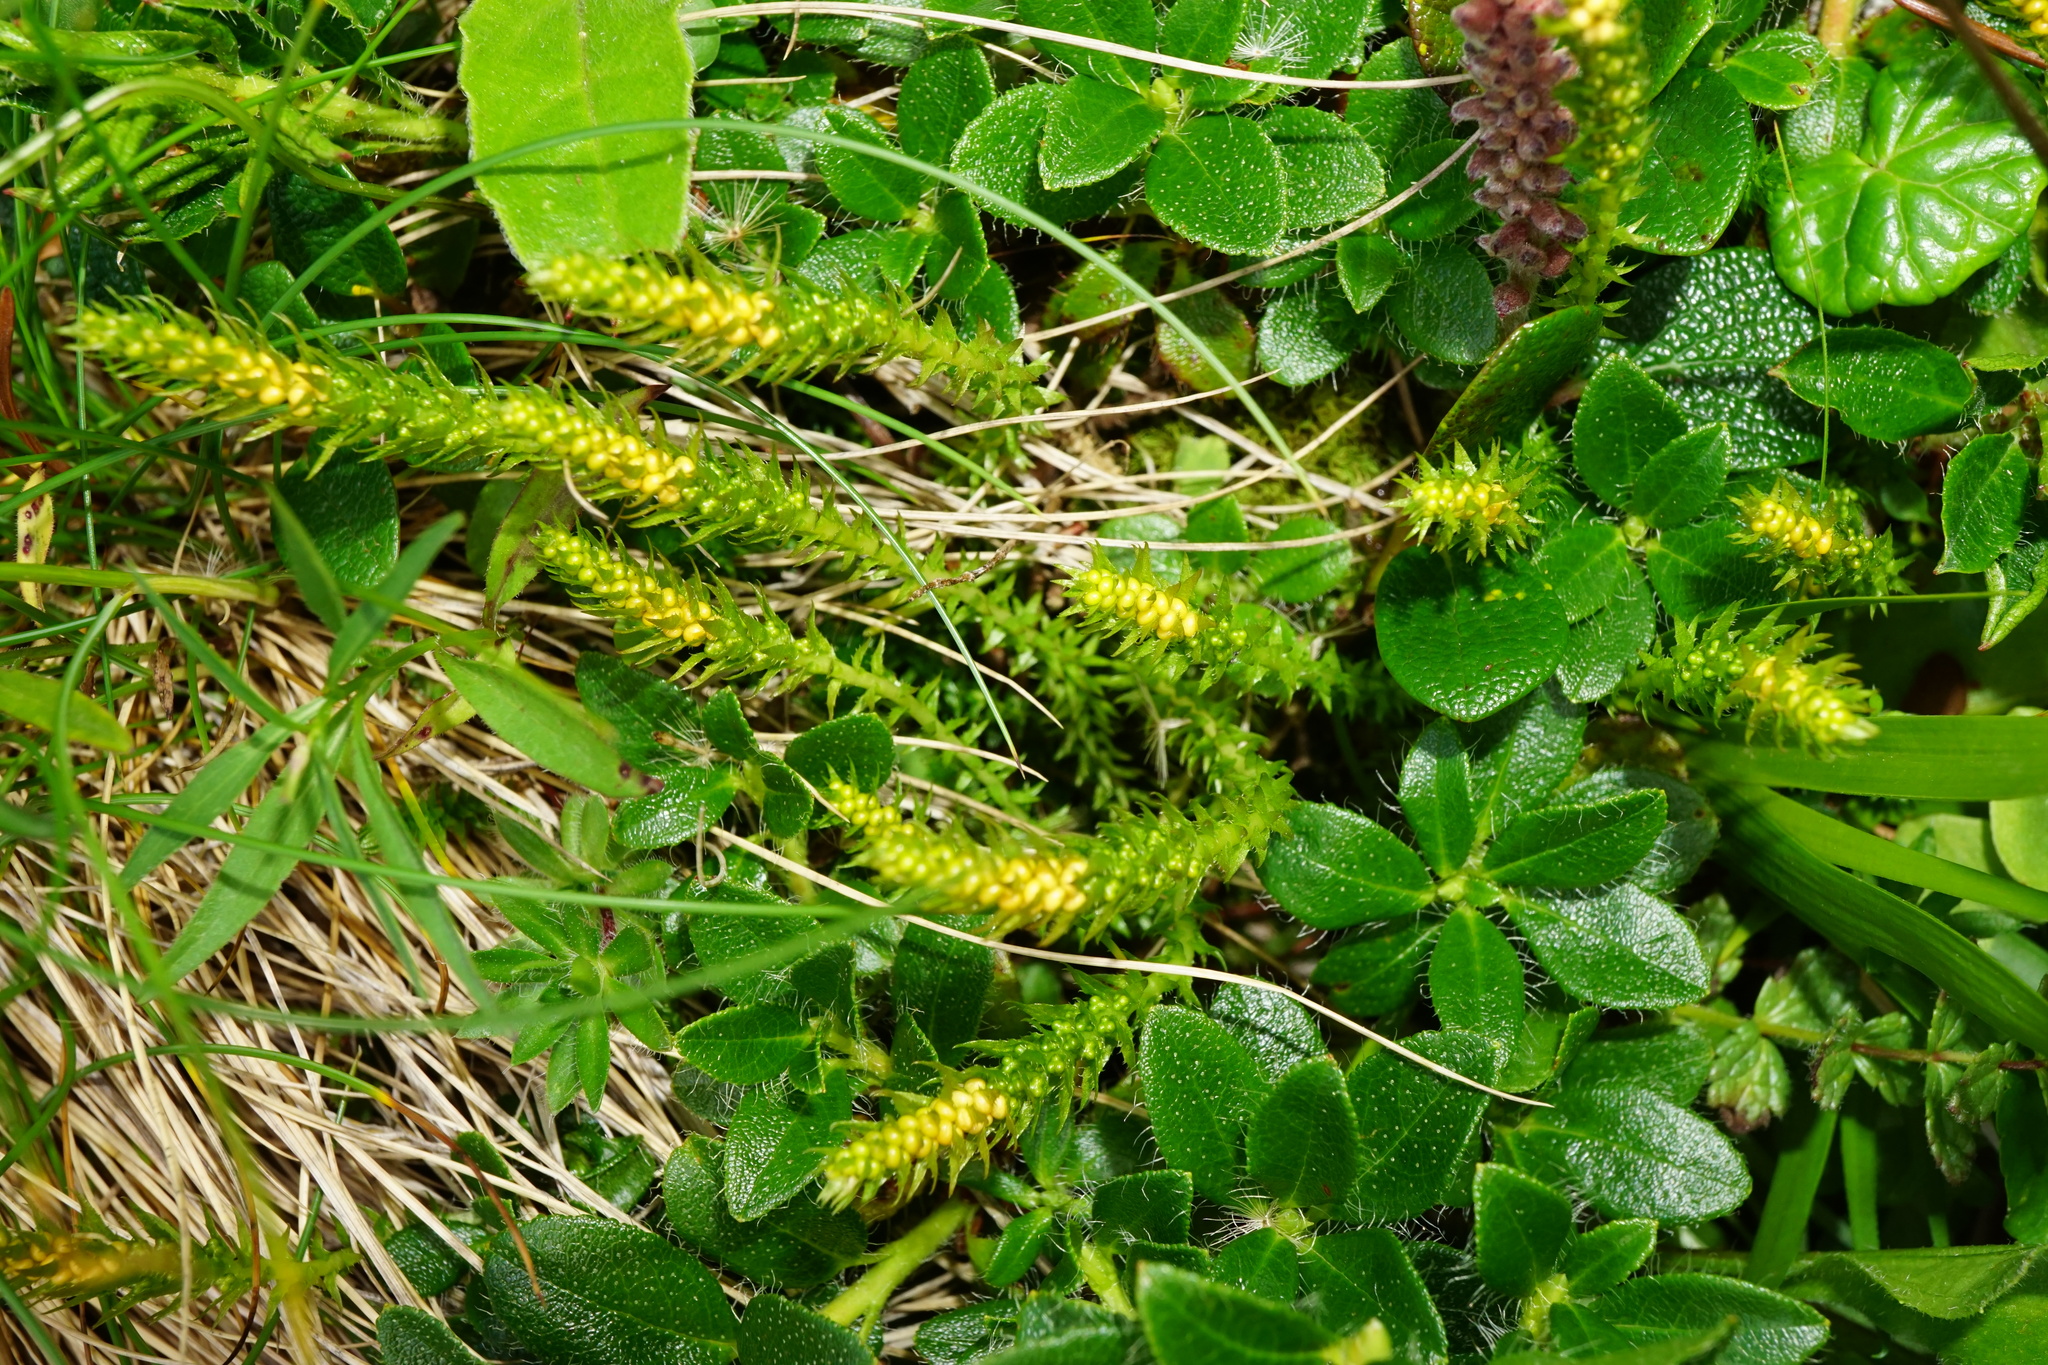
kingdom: Plantae
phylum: Tracheophyta
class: Lycopodiopsida
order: Selaginellales
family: Selaginellaceae
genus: Selaginella
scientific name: Selaginella selaginoides
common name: Prickly mountain-moss
